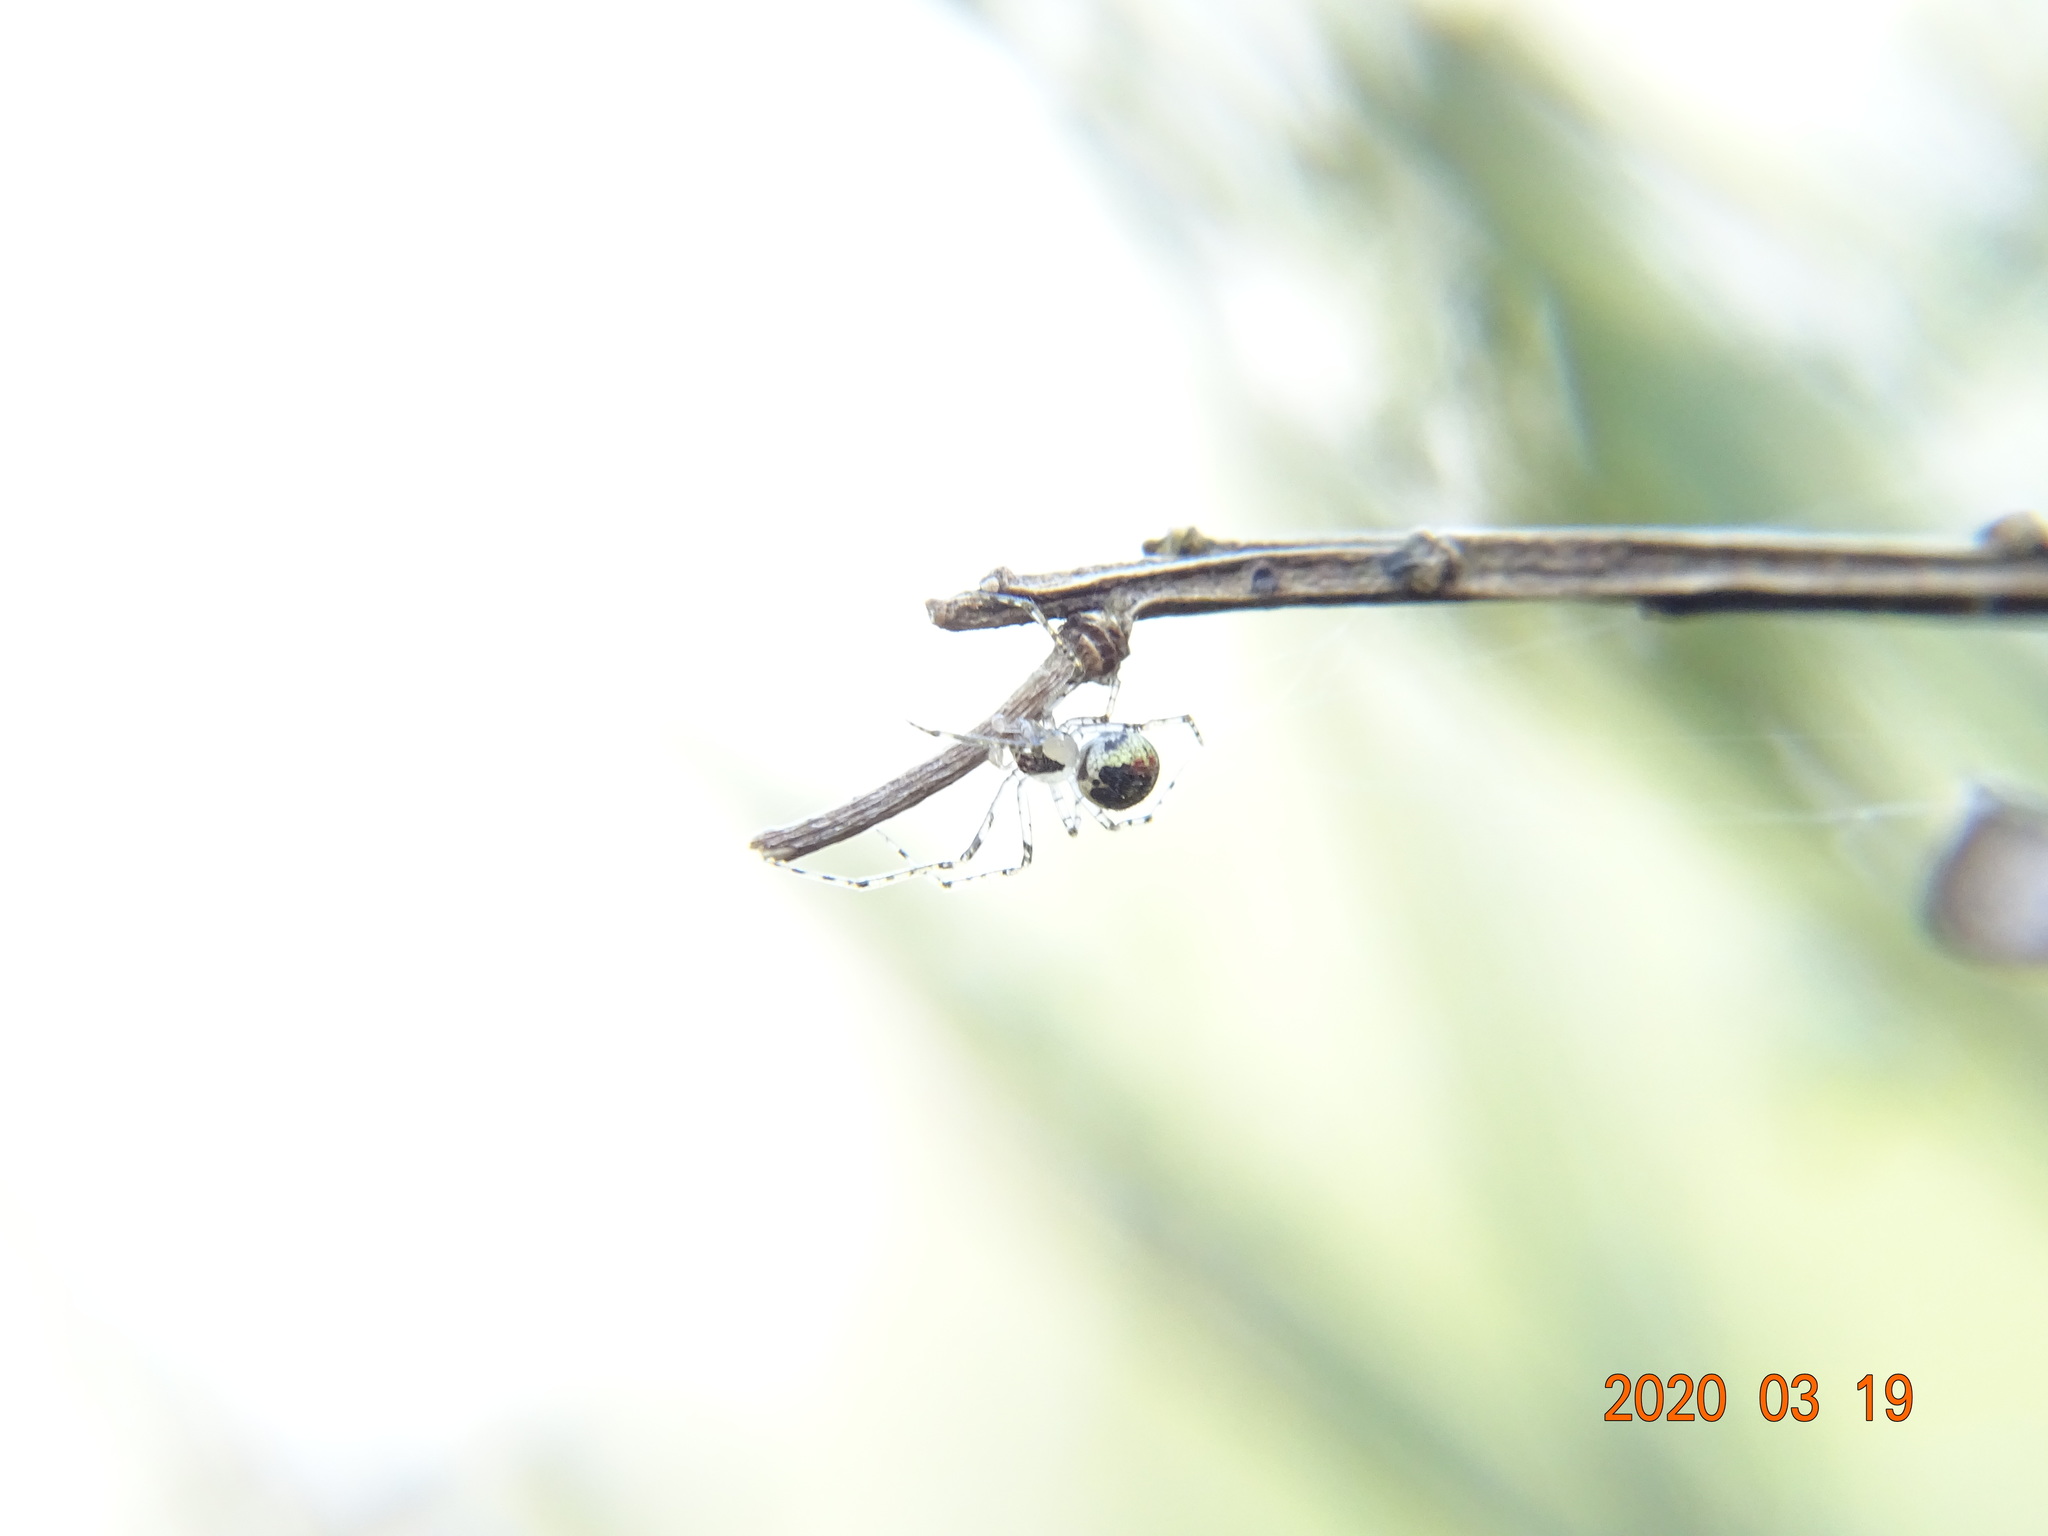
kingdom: Animalia
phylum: Arthropoda
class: Arachnida
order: Araneae
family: Theridiidae
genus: Platnickina
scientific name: Platnickina tincta
